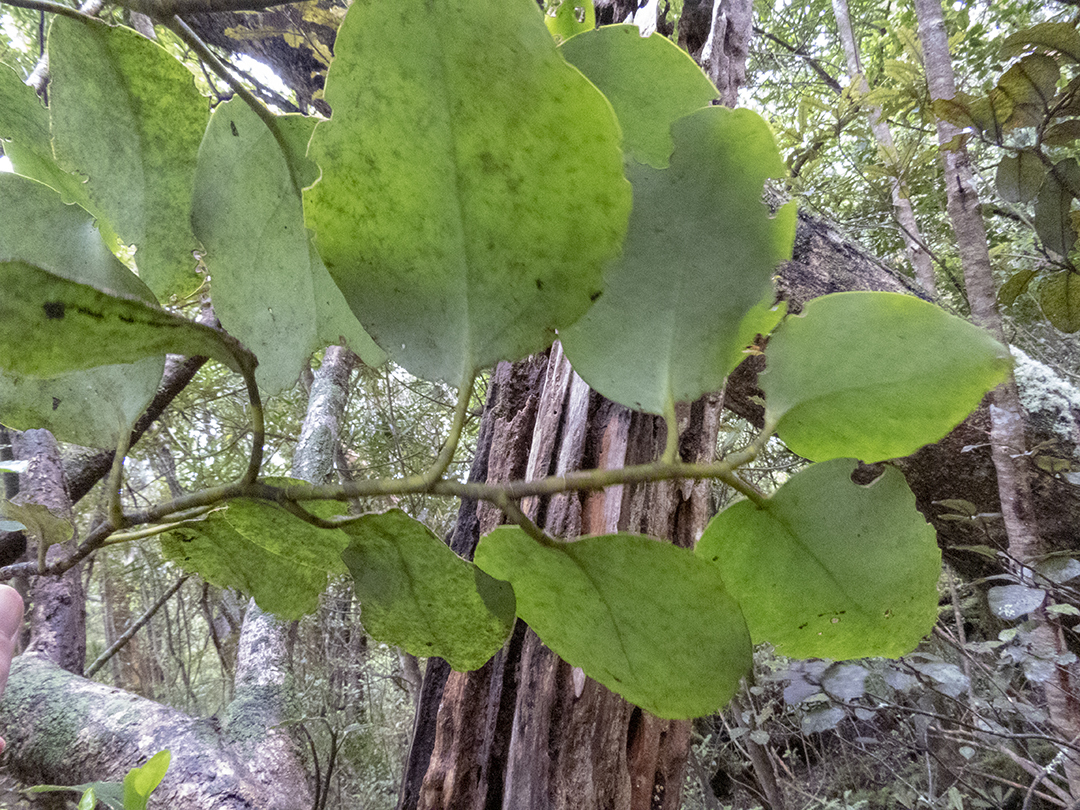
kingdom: Plantae
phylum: Tracheophyta
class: Magnoliopsida
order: Apiales
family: Griseliniaceae
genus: Griselinia
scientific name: Griselinia littoralis
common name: New zealand broadleaf
